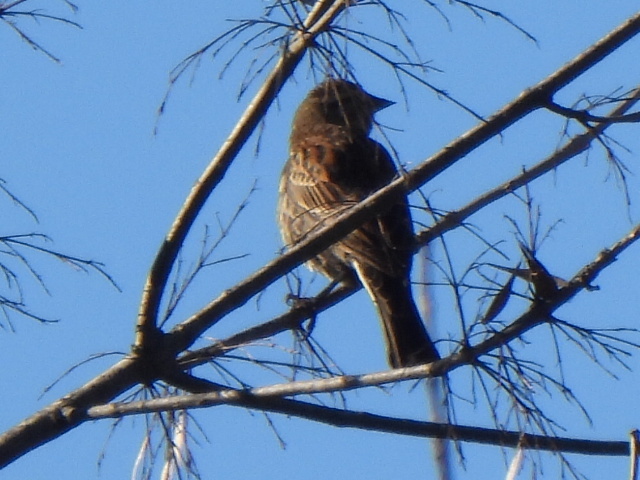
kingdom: Animalia
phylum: Chordata
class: Aves
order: Passeriformes
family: Icteridae
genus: Agelaius
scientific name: Agelaius phoeniceus
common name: Red-winged blackbird
